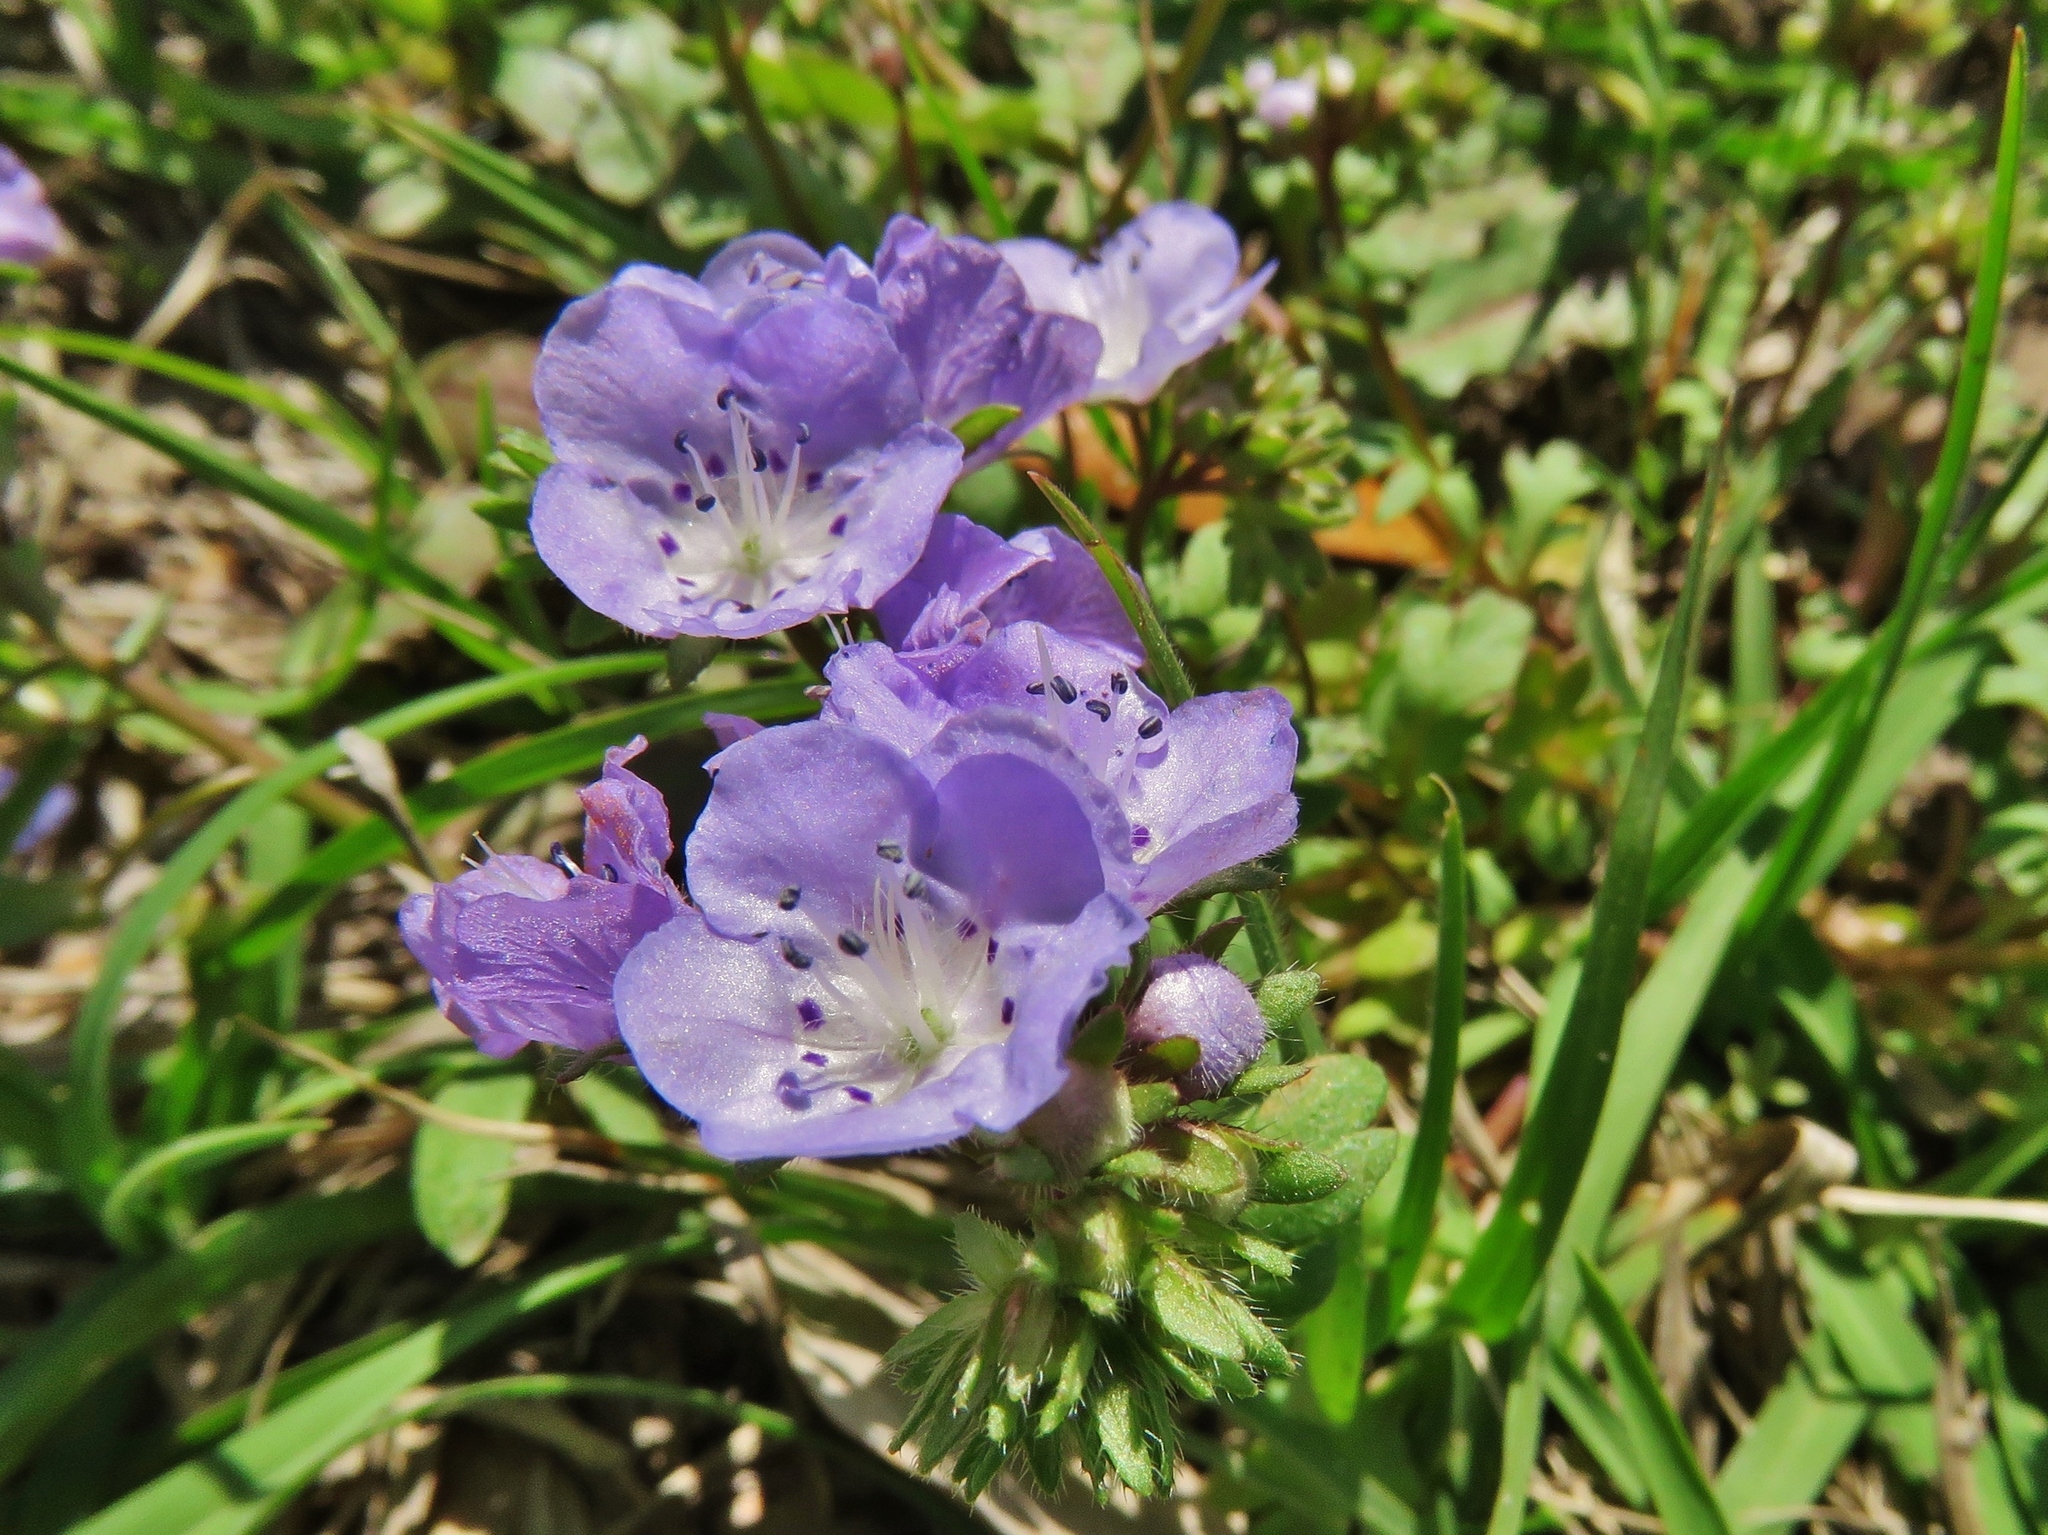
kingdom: Plantae
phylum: Tracheophyta
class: Magnoliopsida
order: Boraginales
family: Hydrophyllaceae
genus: Nemophila
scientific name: Nemophila phacelioides
